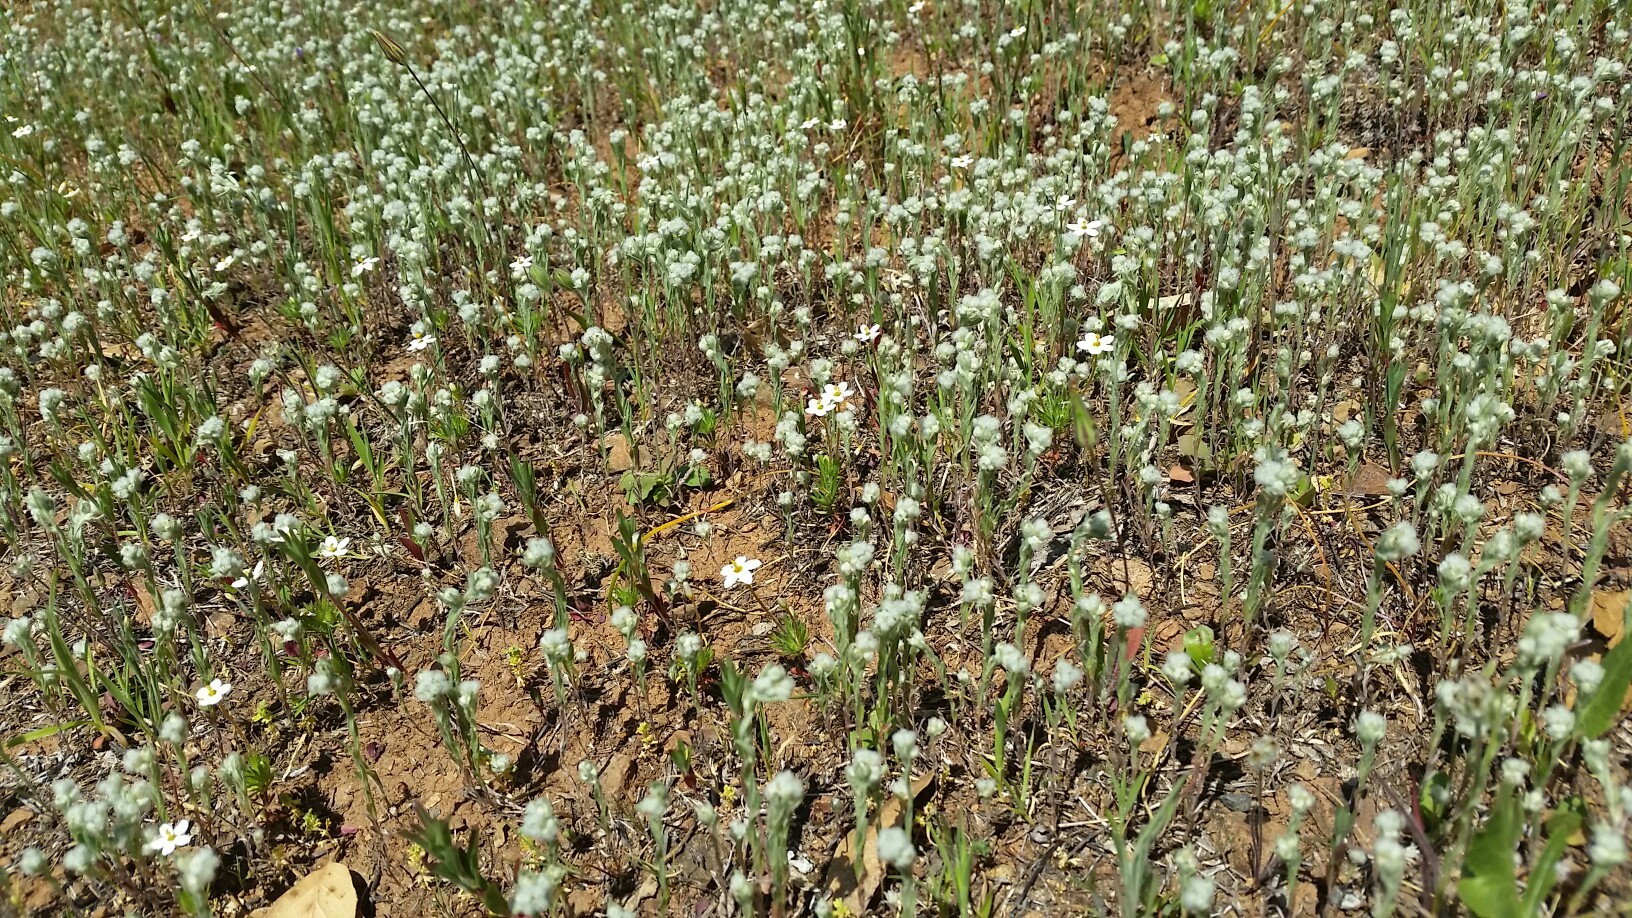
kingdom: Plantae
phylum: Tracheophyta
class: Magnoliopsida
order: Asterales
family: Asteraceae
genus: Bombycilaena
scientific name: Bombycilaena californica
